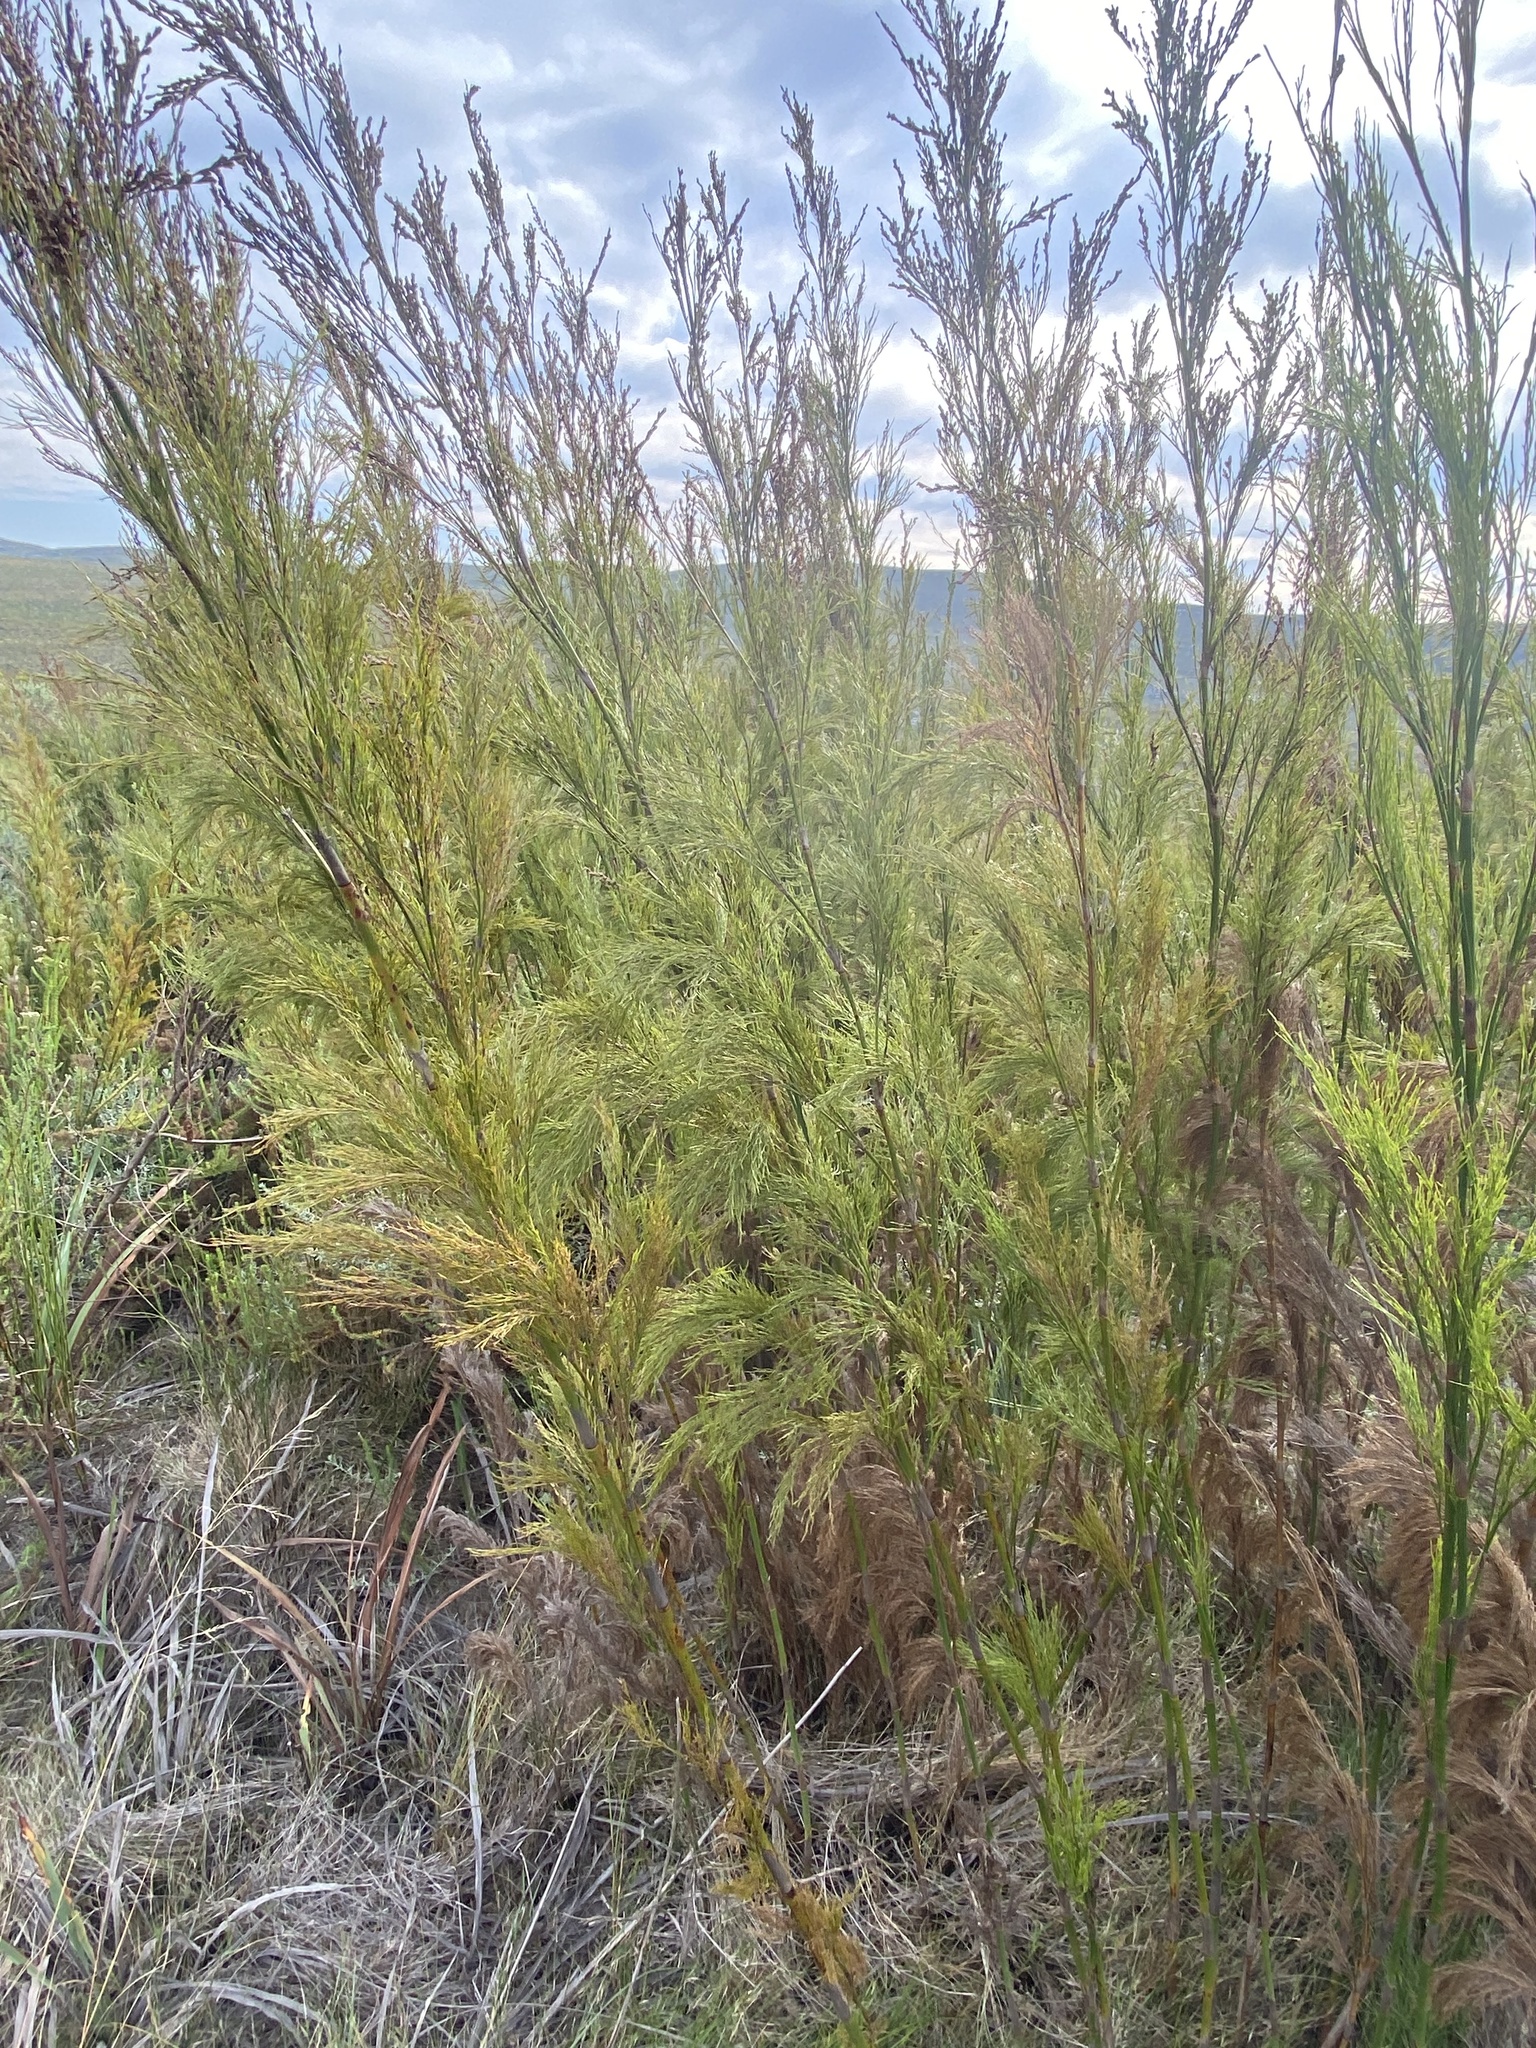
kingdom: Plantae
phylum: Tracheophyta
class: Liliopsida
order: Poales
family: Restionaceae
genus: Restio
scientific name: Restio paniculatus
